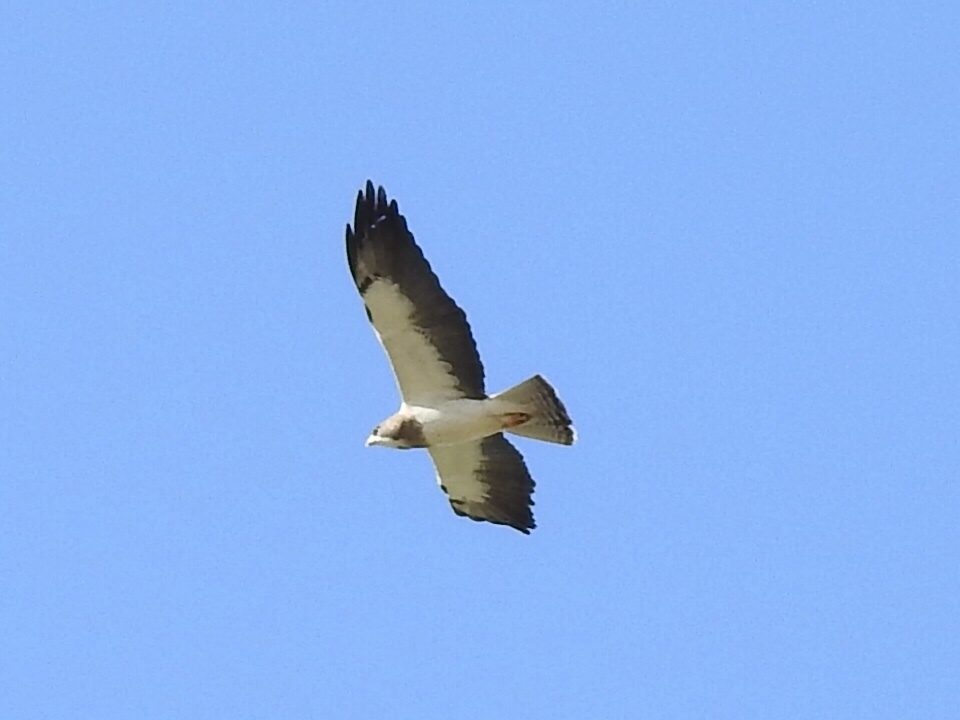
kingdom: Animalia
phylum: Chordata
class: Aves
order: Accipitriformes
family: Accipitridae
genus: Buteo
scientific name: Buteo swainsoni
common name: Swainson's hawk
